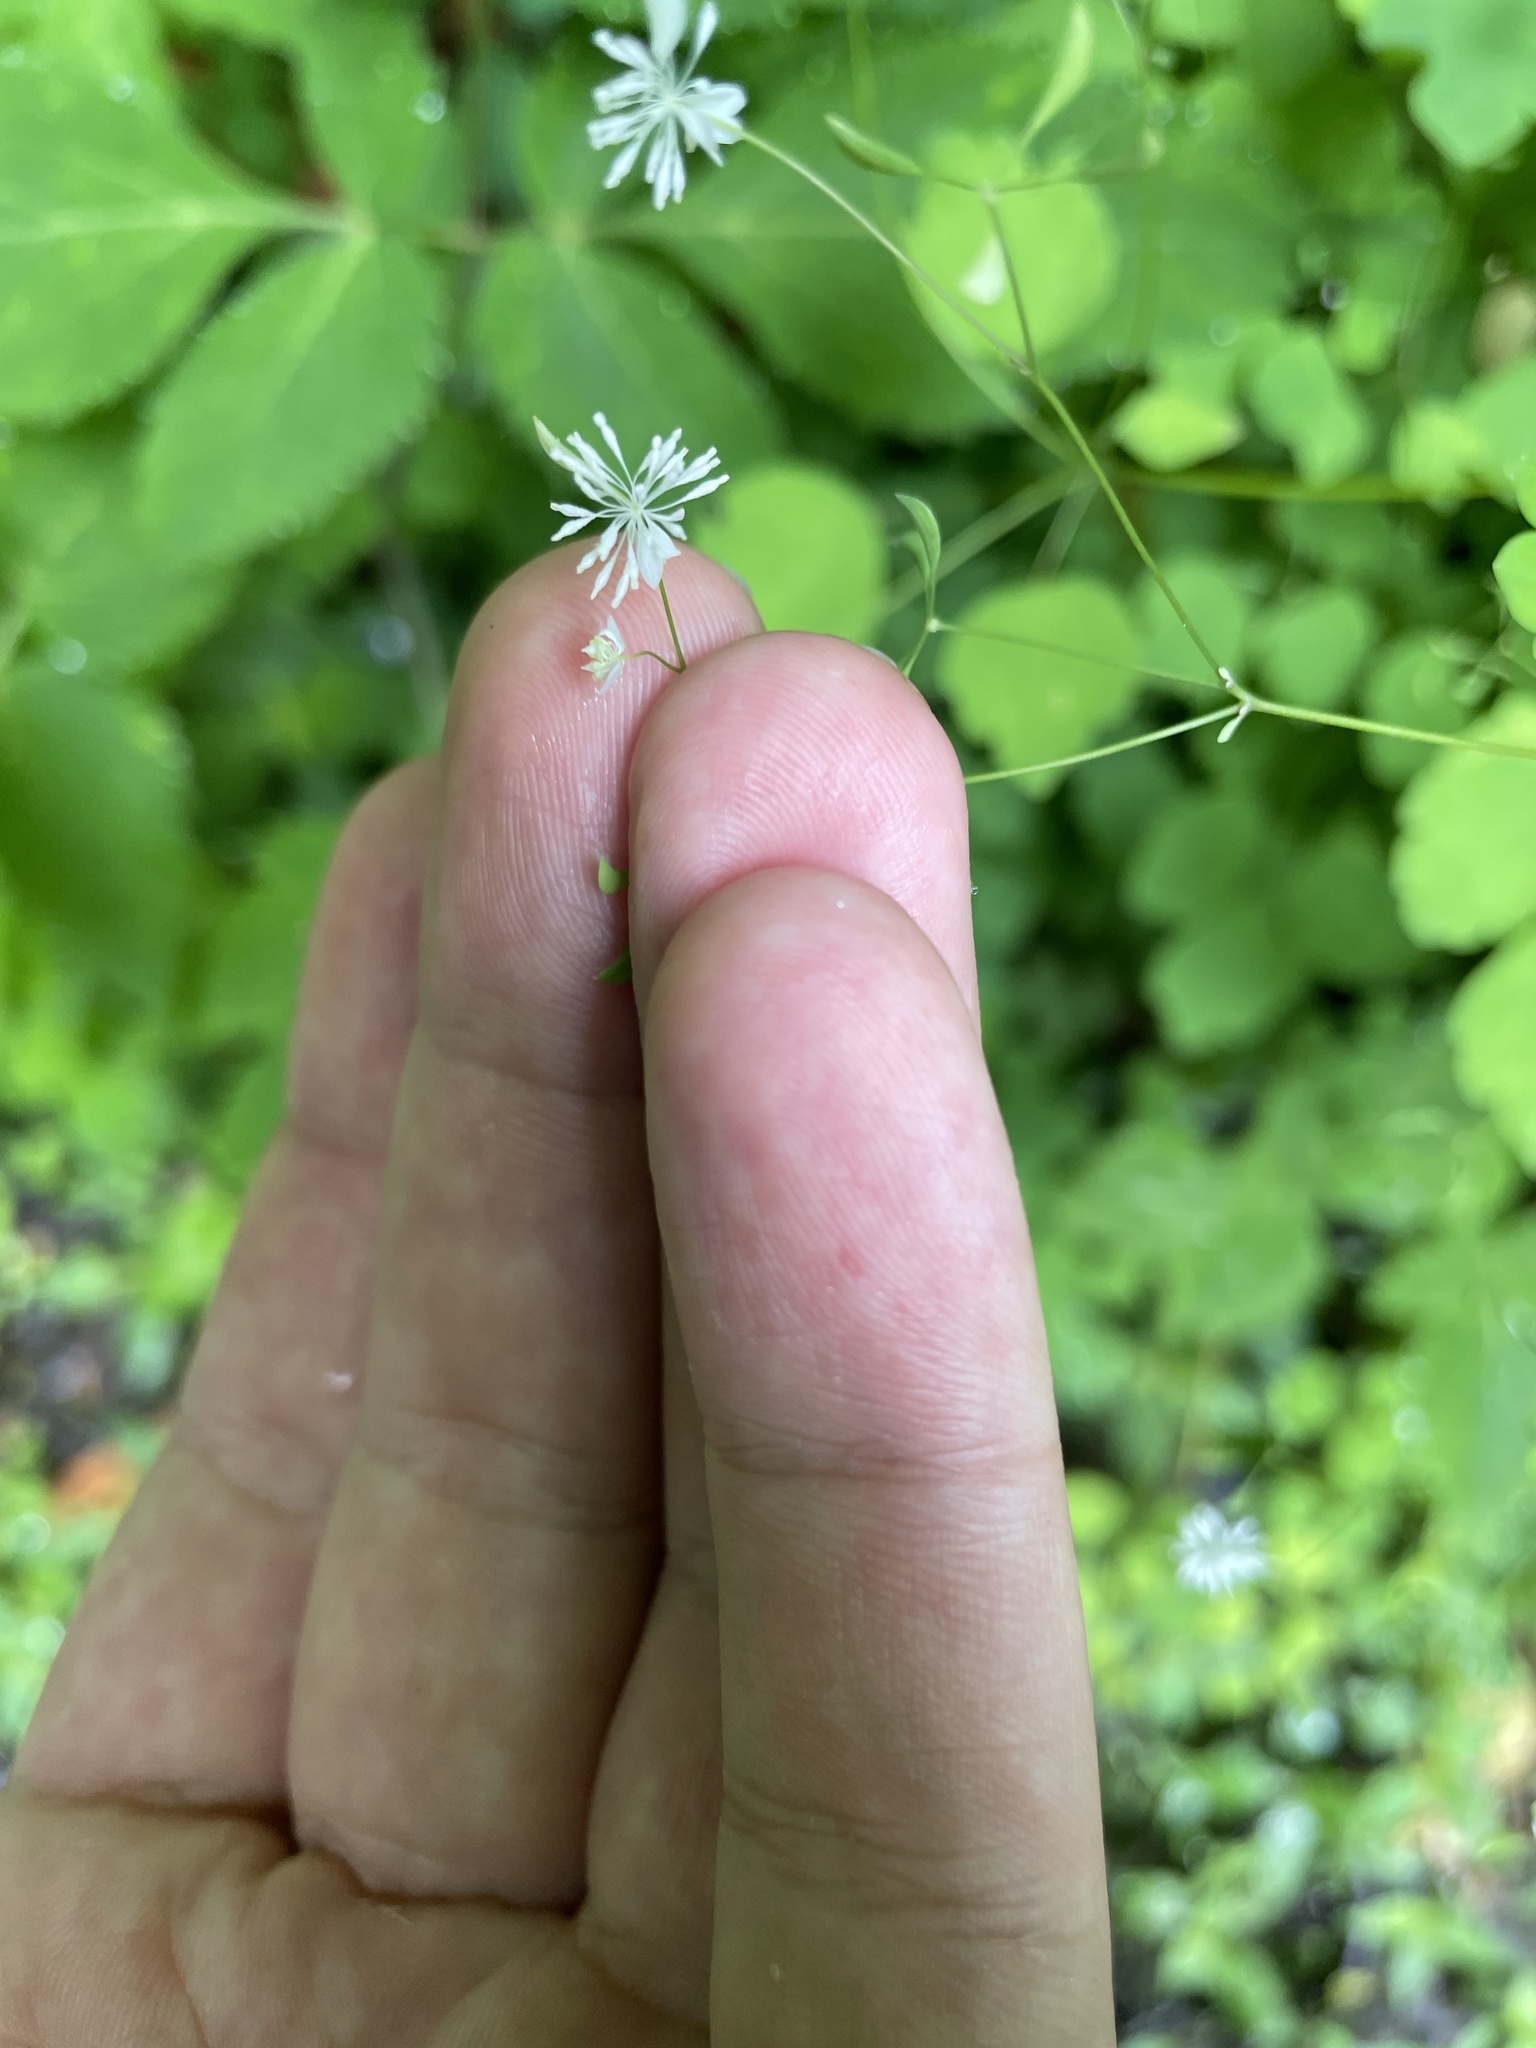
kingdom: Plantae
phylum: Tracheophyta
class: Magnoliopsida
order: Ranunculales
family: Ranunculaceae
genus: Thalictrum
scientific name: Thalictrum clavatum
